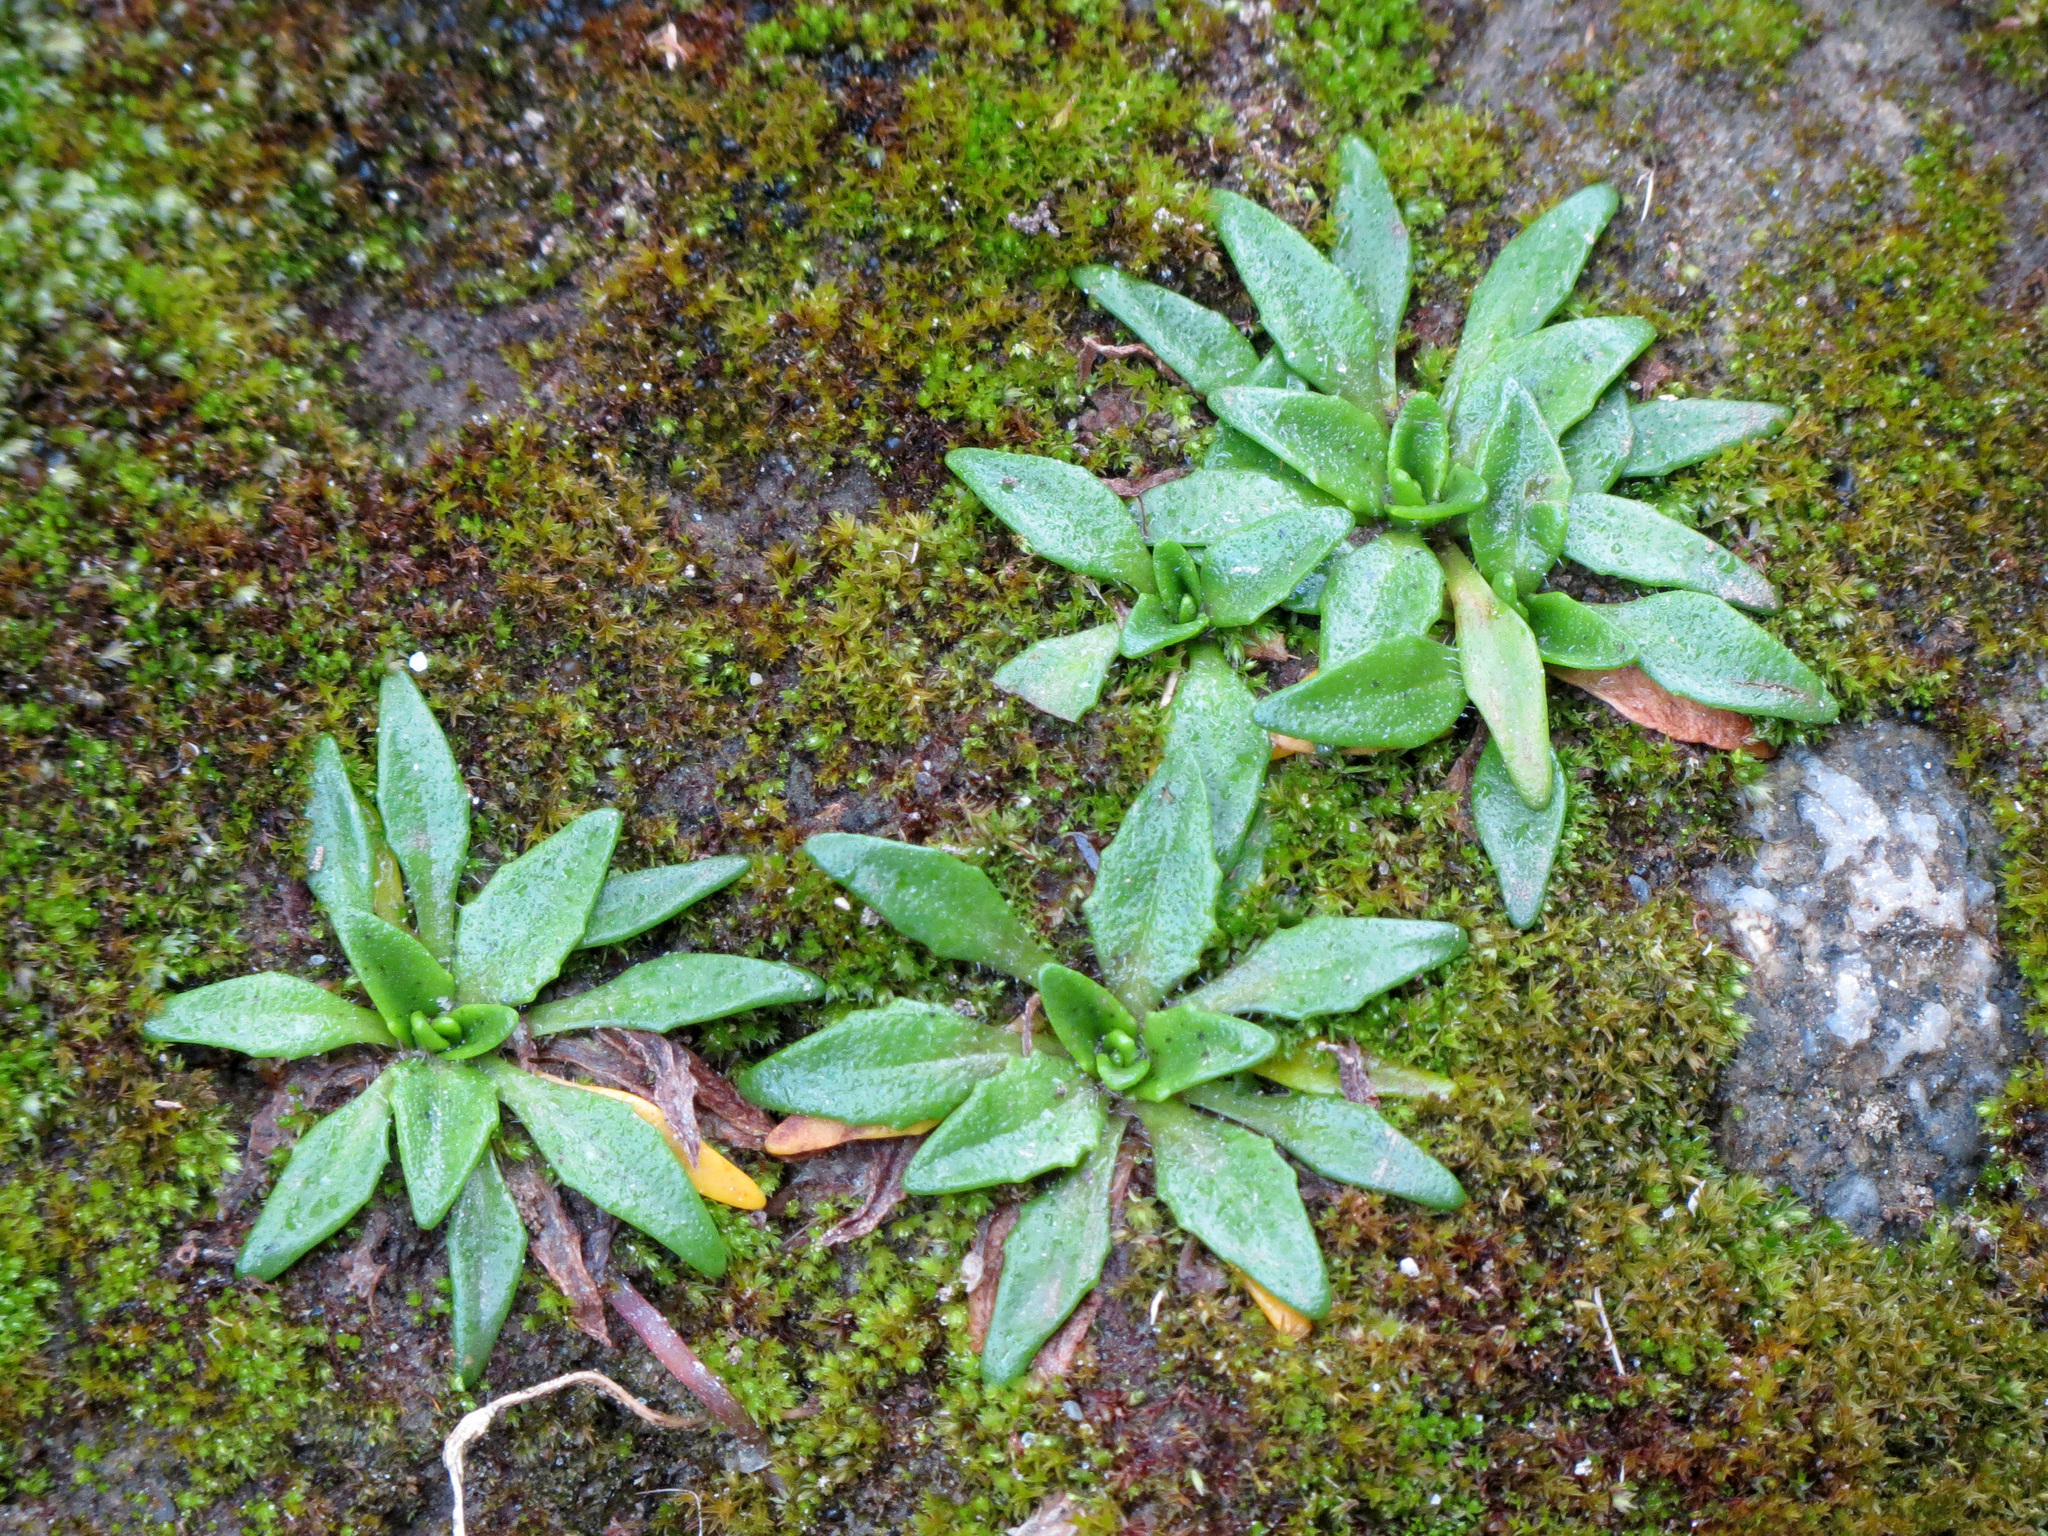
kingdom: Plantae
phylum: Tracheophyta
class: Magnoliopsida
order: Lamiales
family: Plantaginaceae
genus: Plantago
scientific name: Plantago triandra
